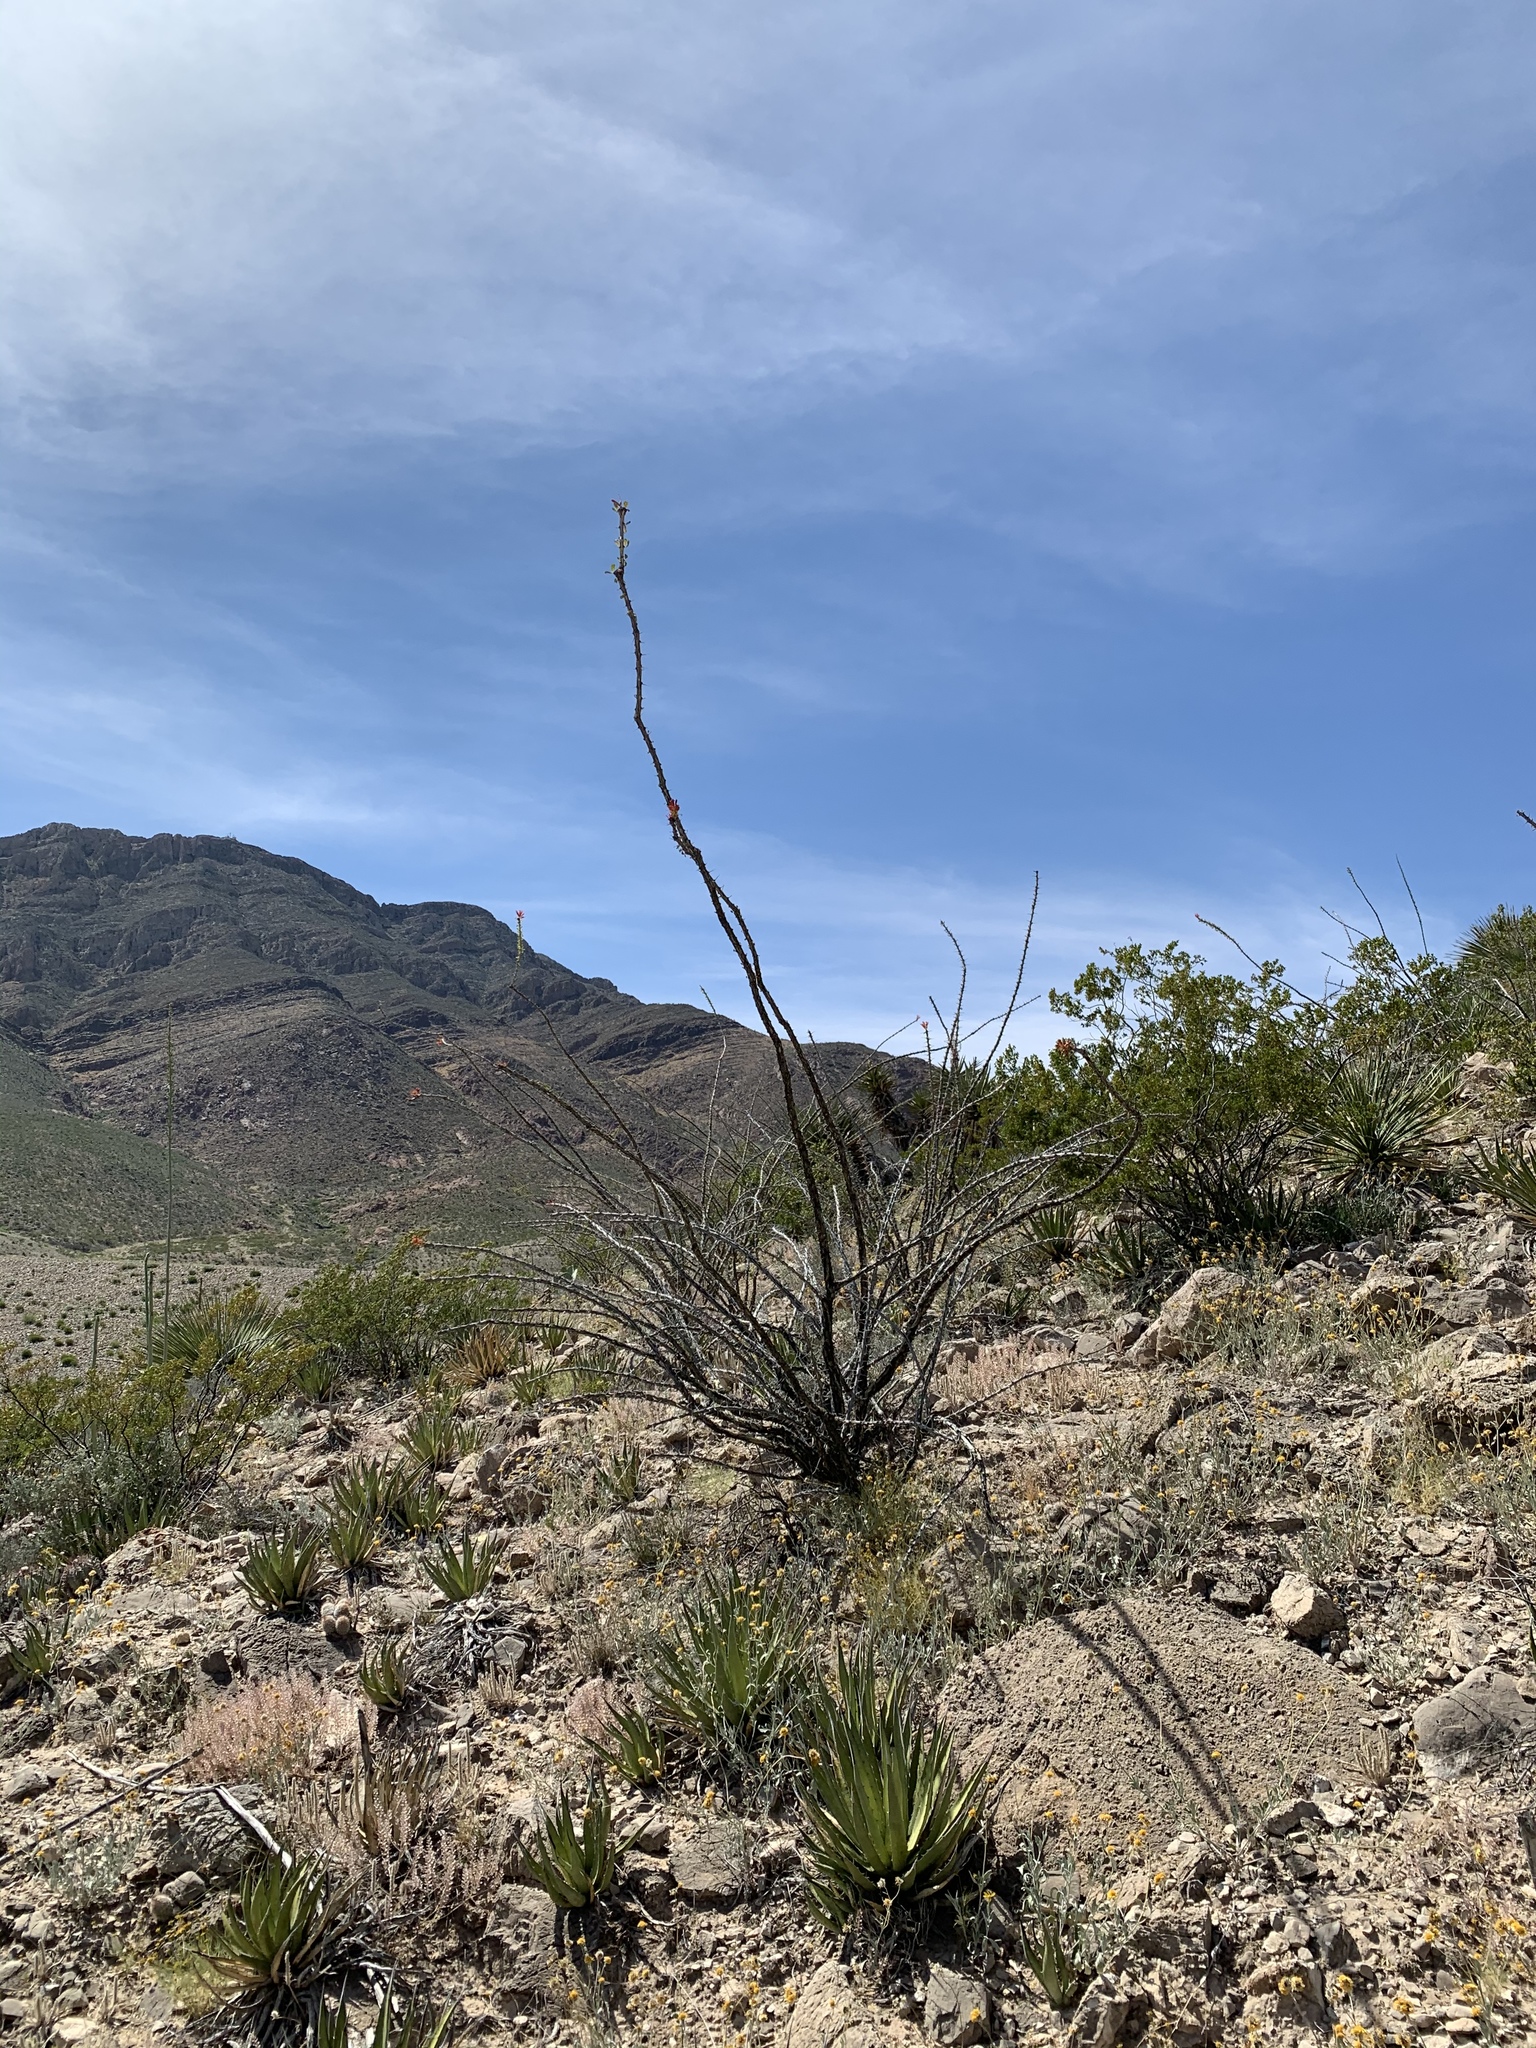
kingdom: Plantae
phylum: Tracheophyta
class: Magnoliopsida
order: Ericales
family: Fouquieriaceae
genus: Fouquieria
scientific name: Fouquieria splendens
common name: Vine-cactus
